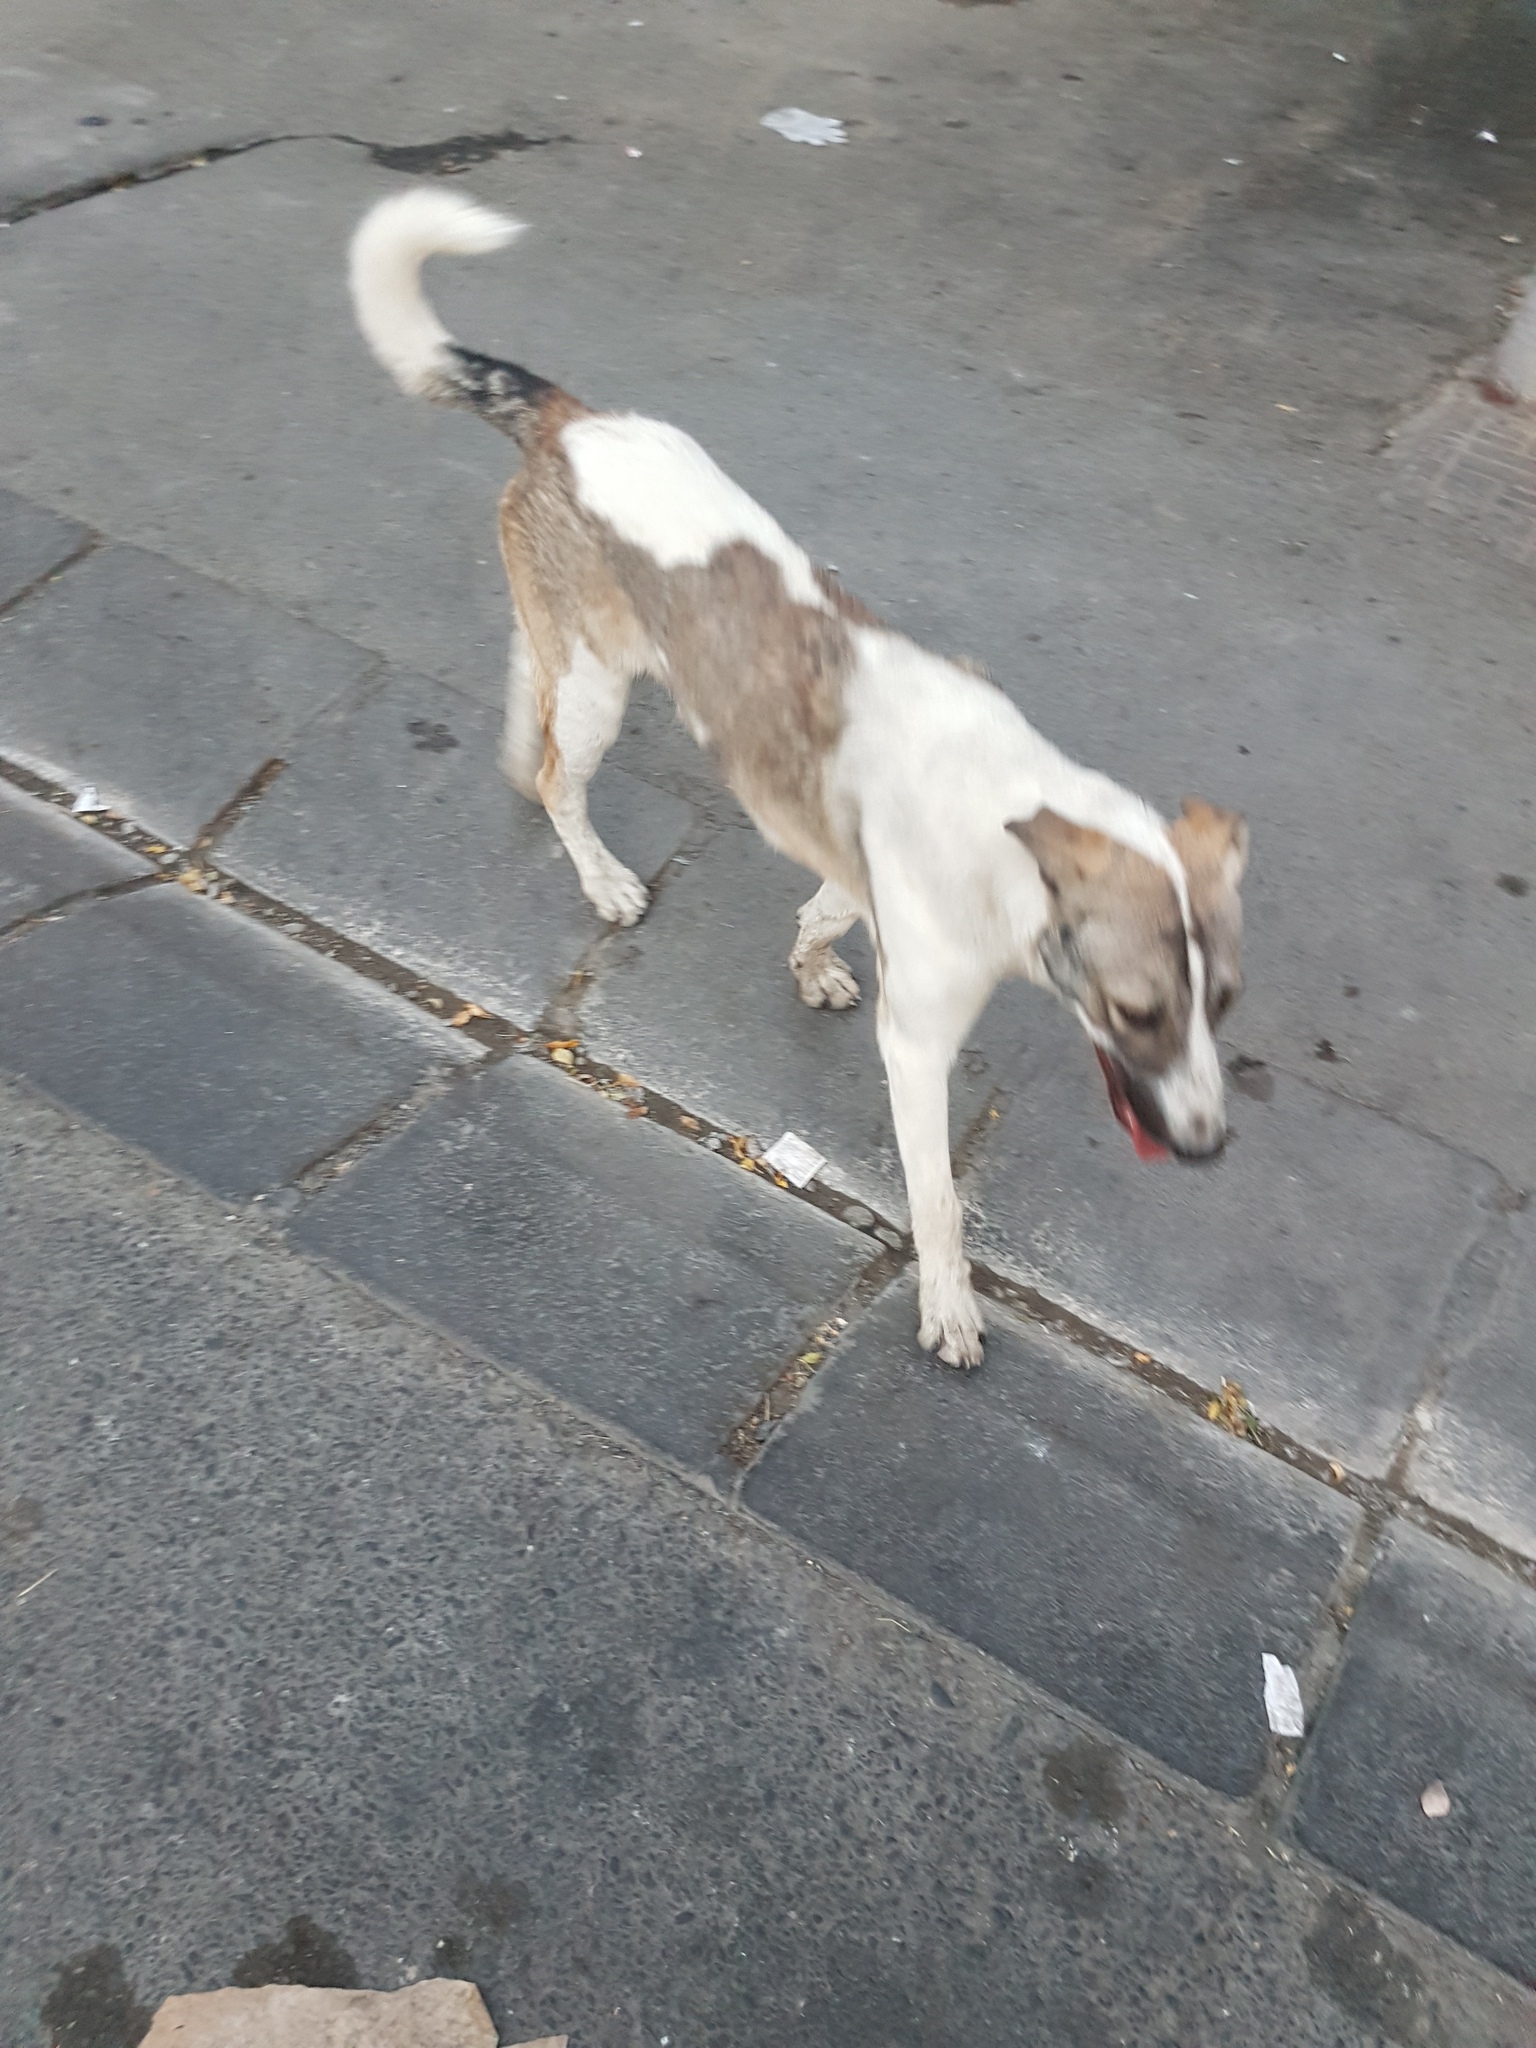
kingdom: Animalia
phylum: Chordata
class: Mammalia
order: Carnivora
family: Canidae
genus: Canis
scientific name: Canis lupus
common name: Gray wolf
